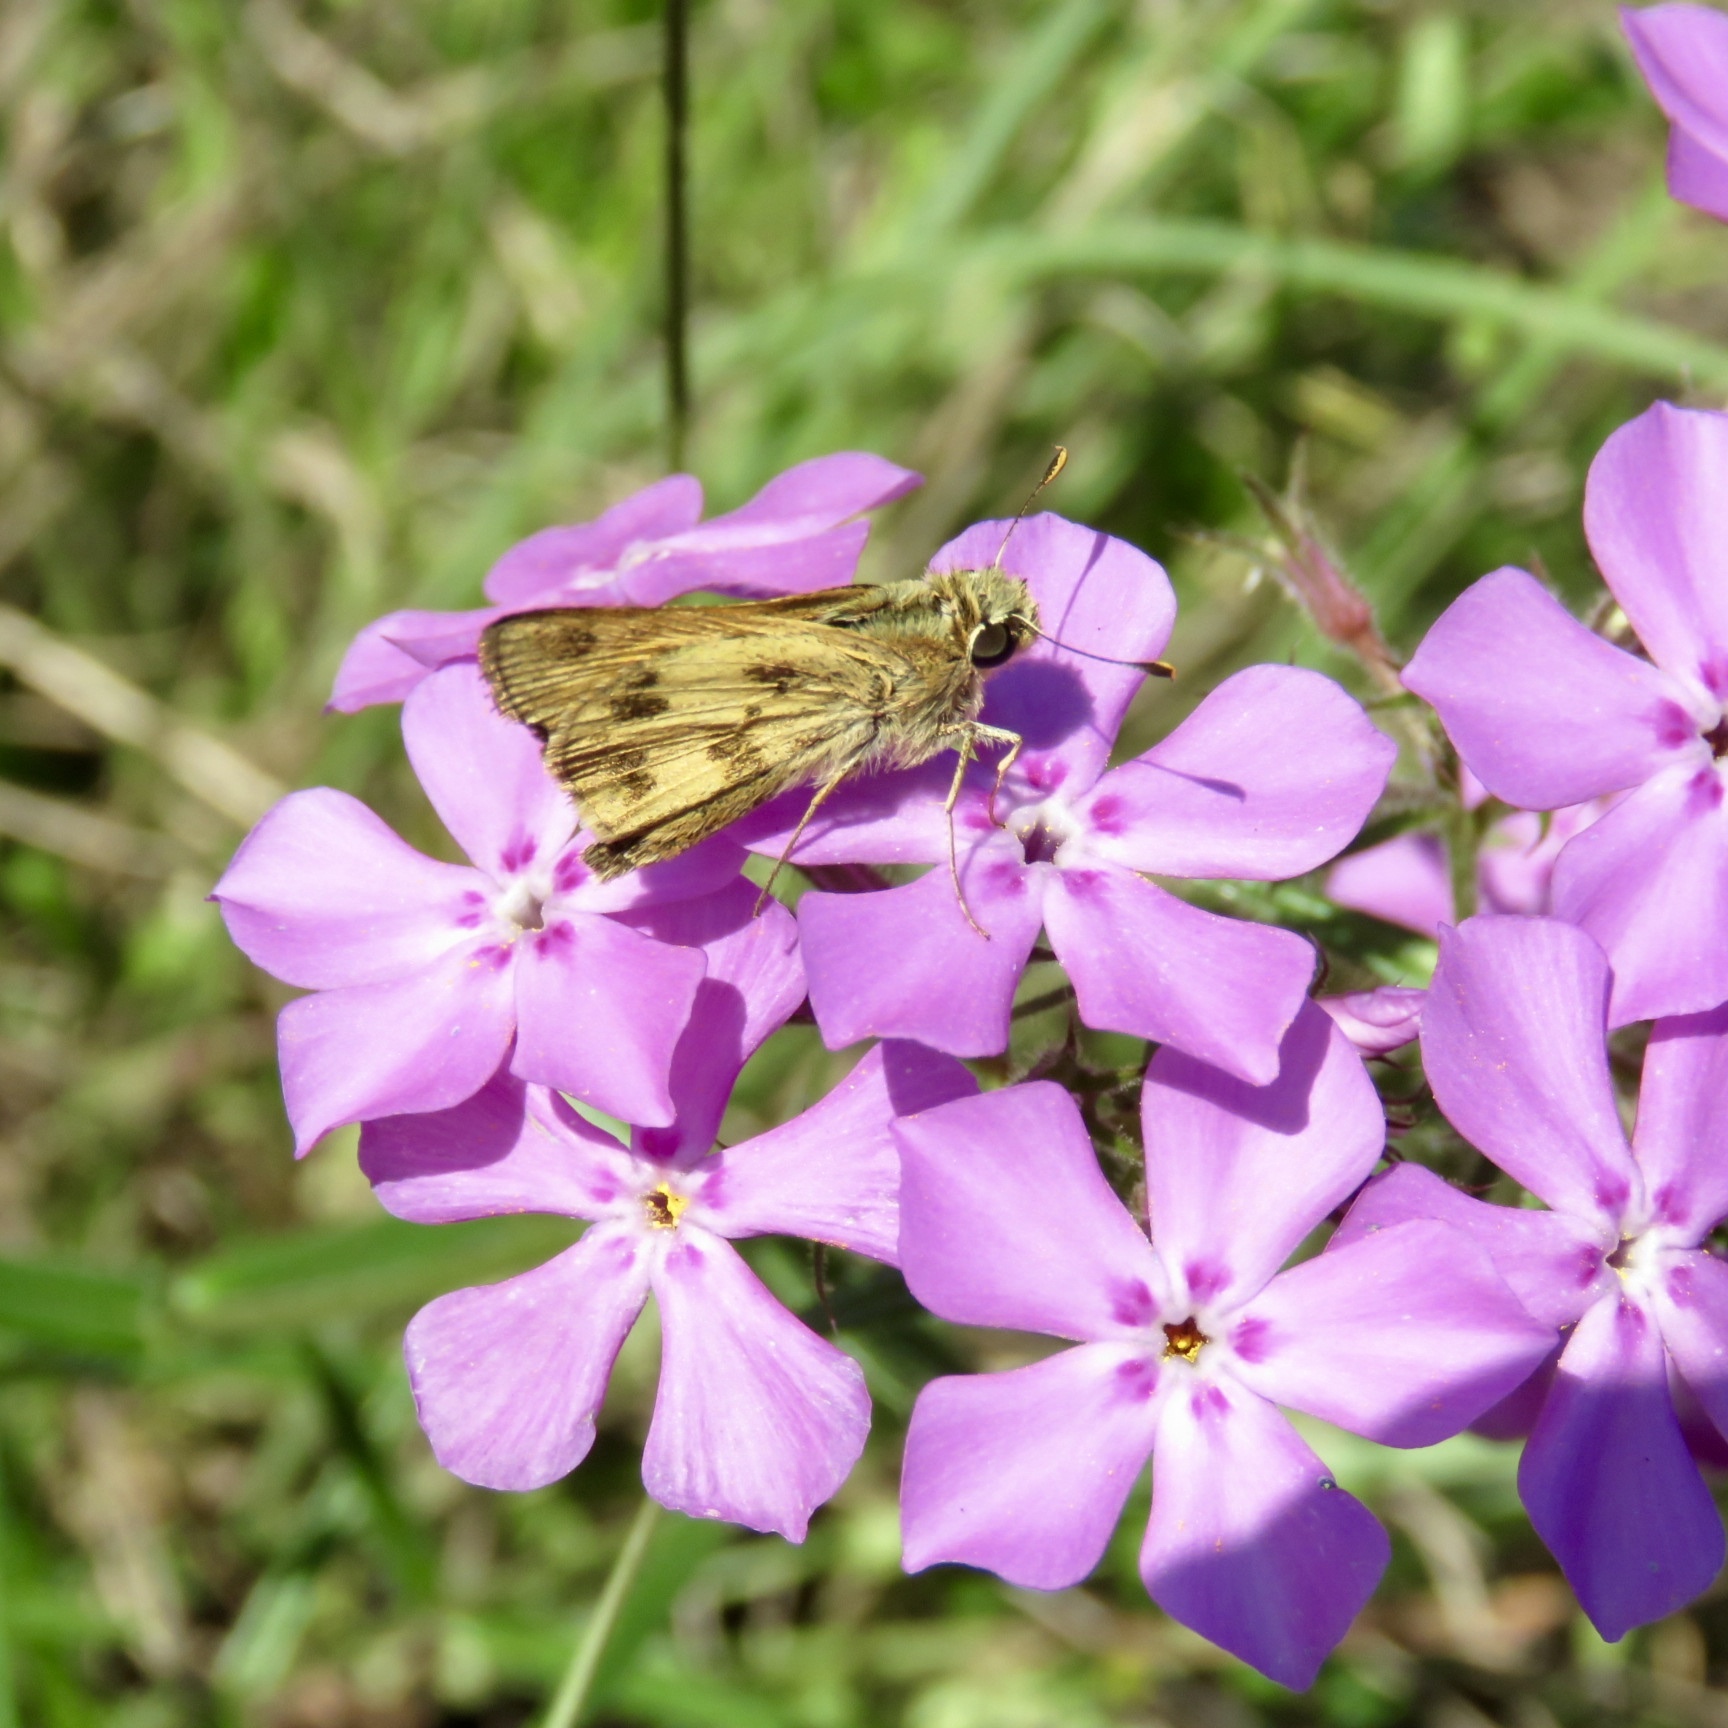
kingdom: Animalia
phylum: Arthropoda
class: Insecta
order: Lepidoptera
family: Hesperiidae
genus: Hylephila
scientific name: Hylephila phyleus
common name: Fiery skipper
